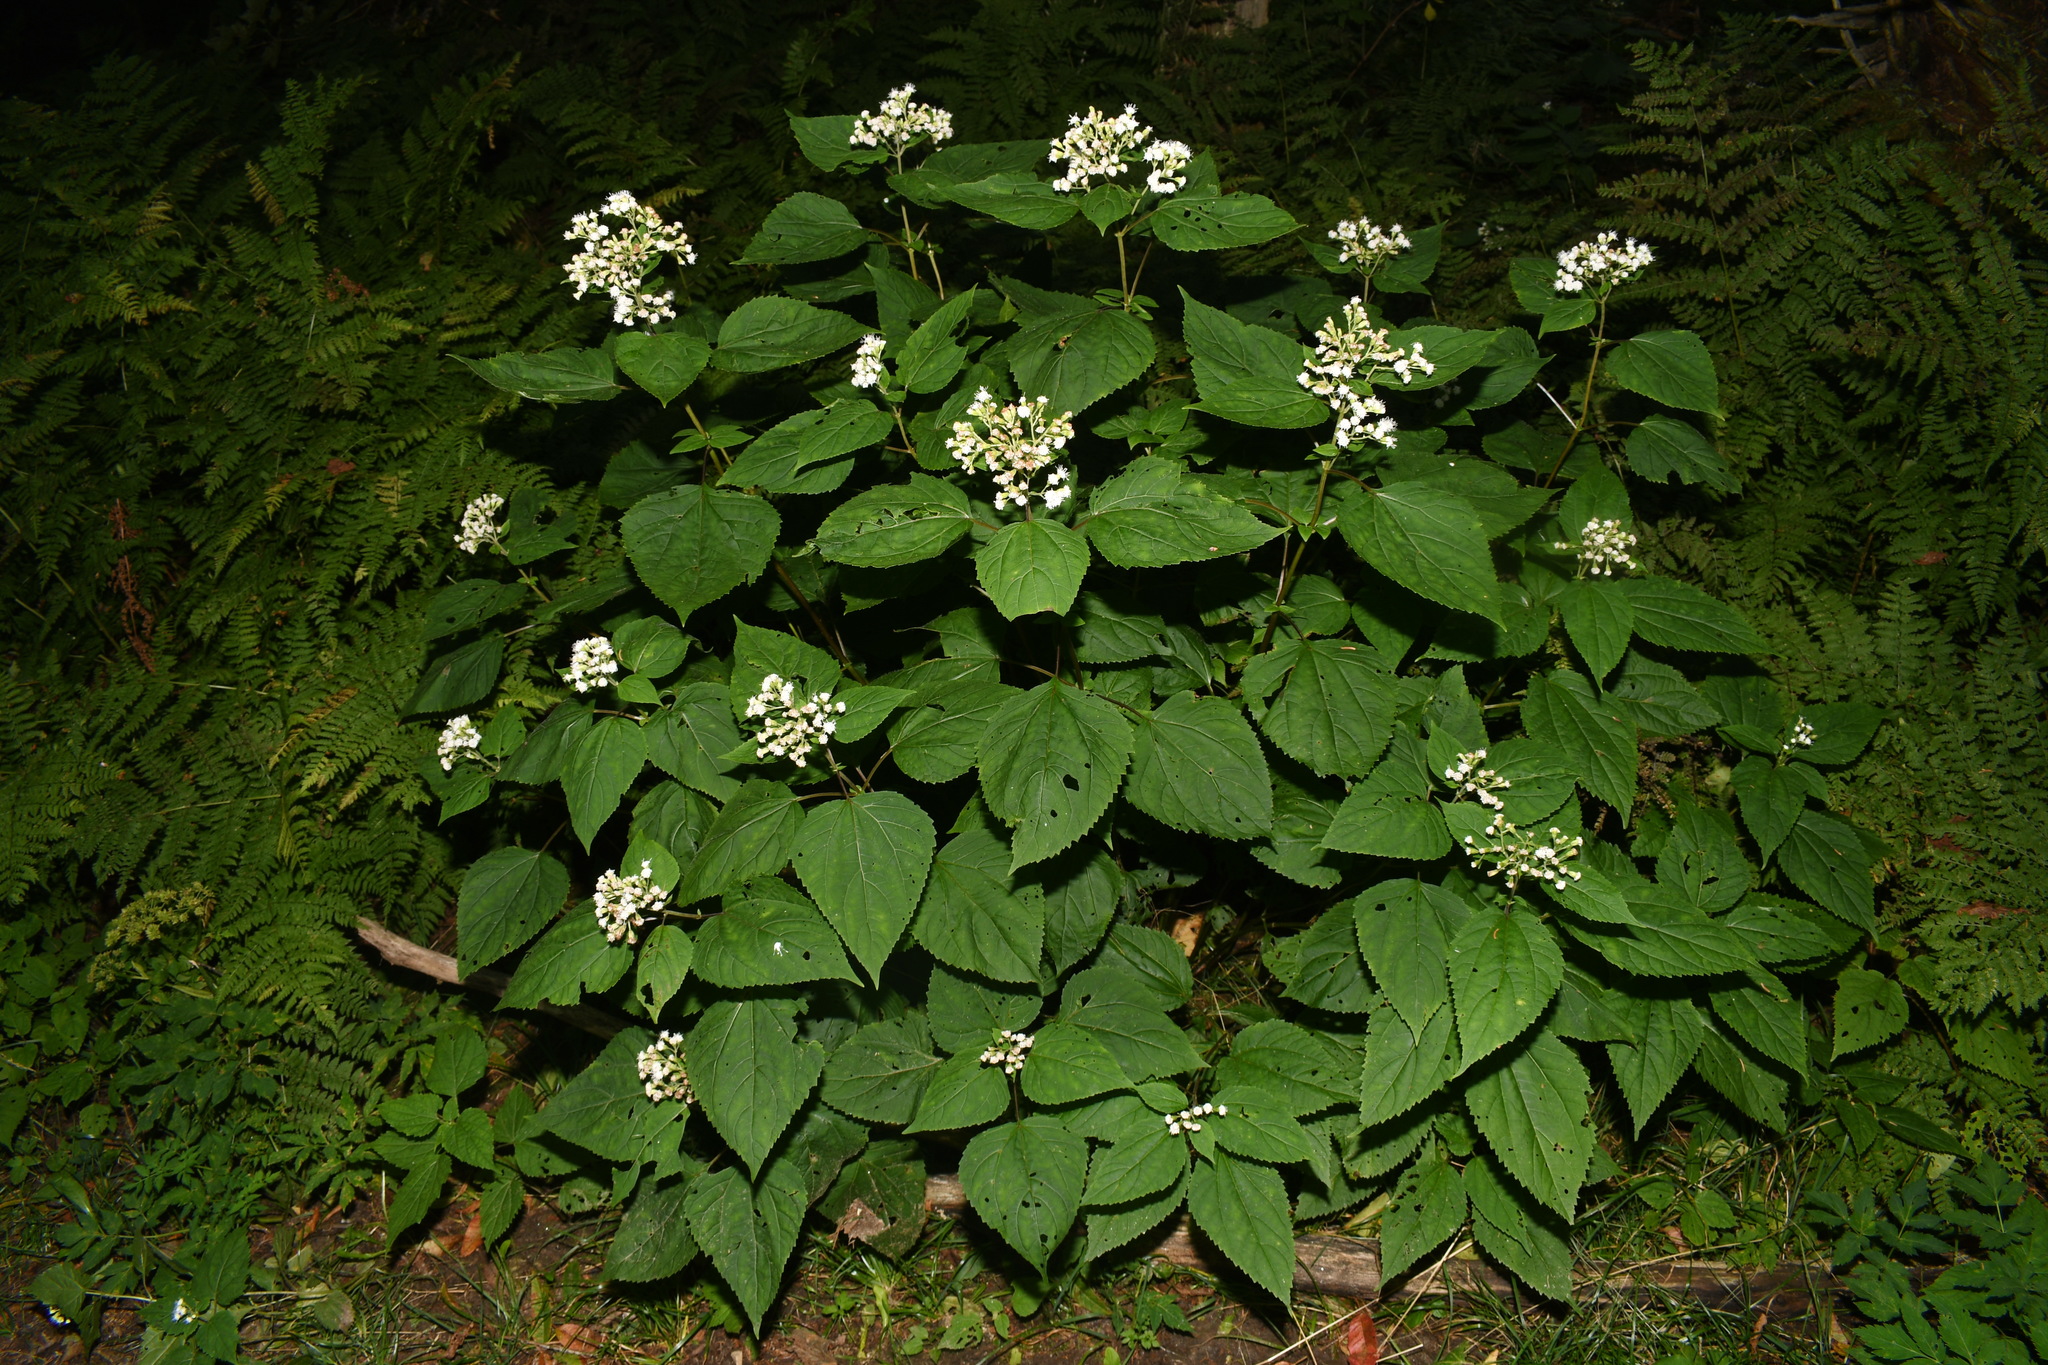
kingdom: Plantae
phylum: Tracheophyta
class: Magnoliopsida
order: Asterales
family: Asteraceae
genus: Ageratina
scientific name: Ageratina roanensis
